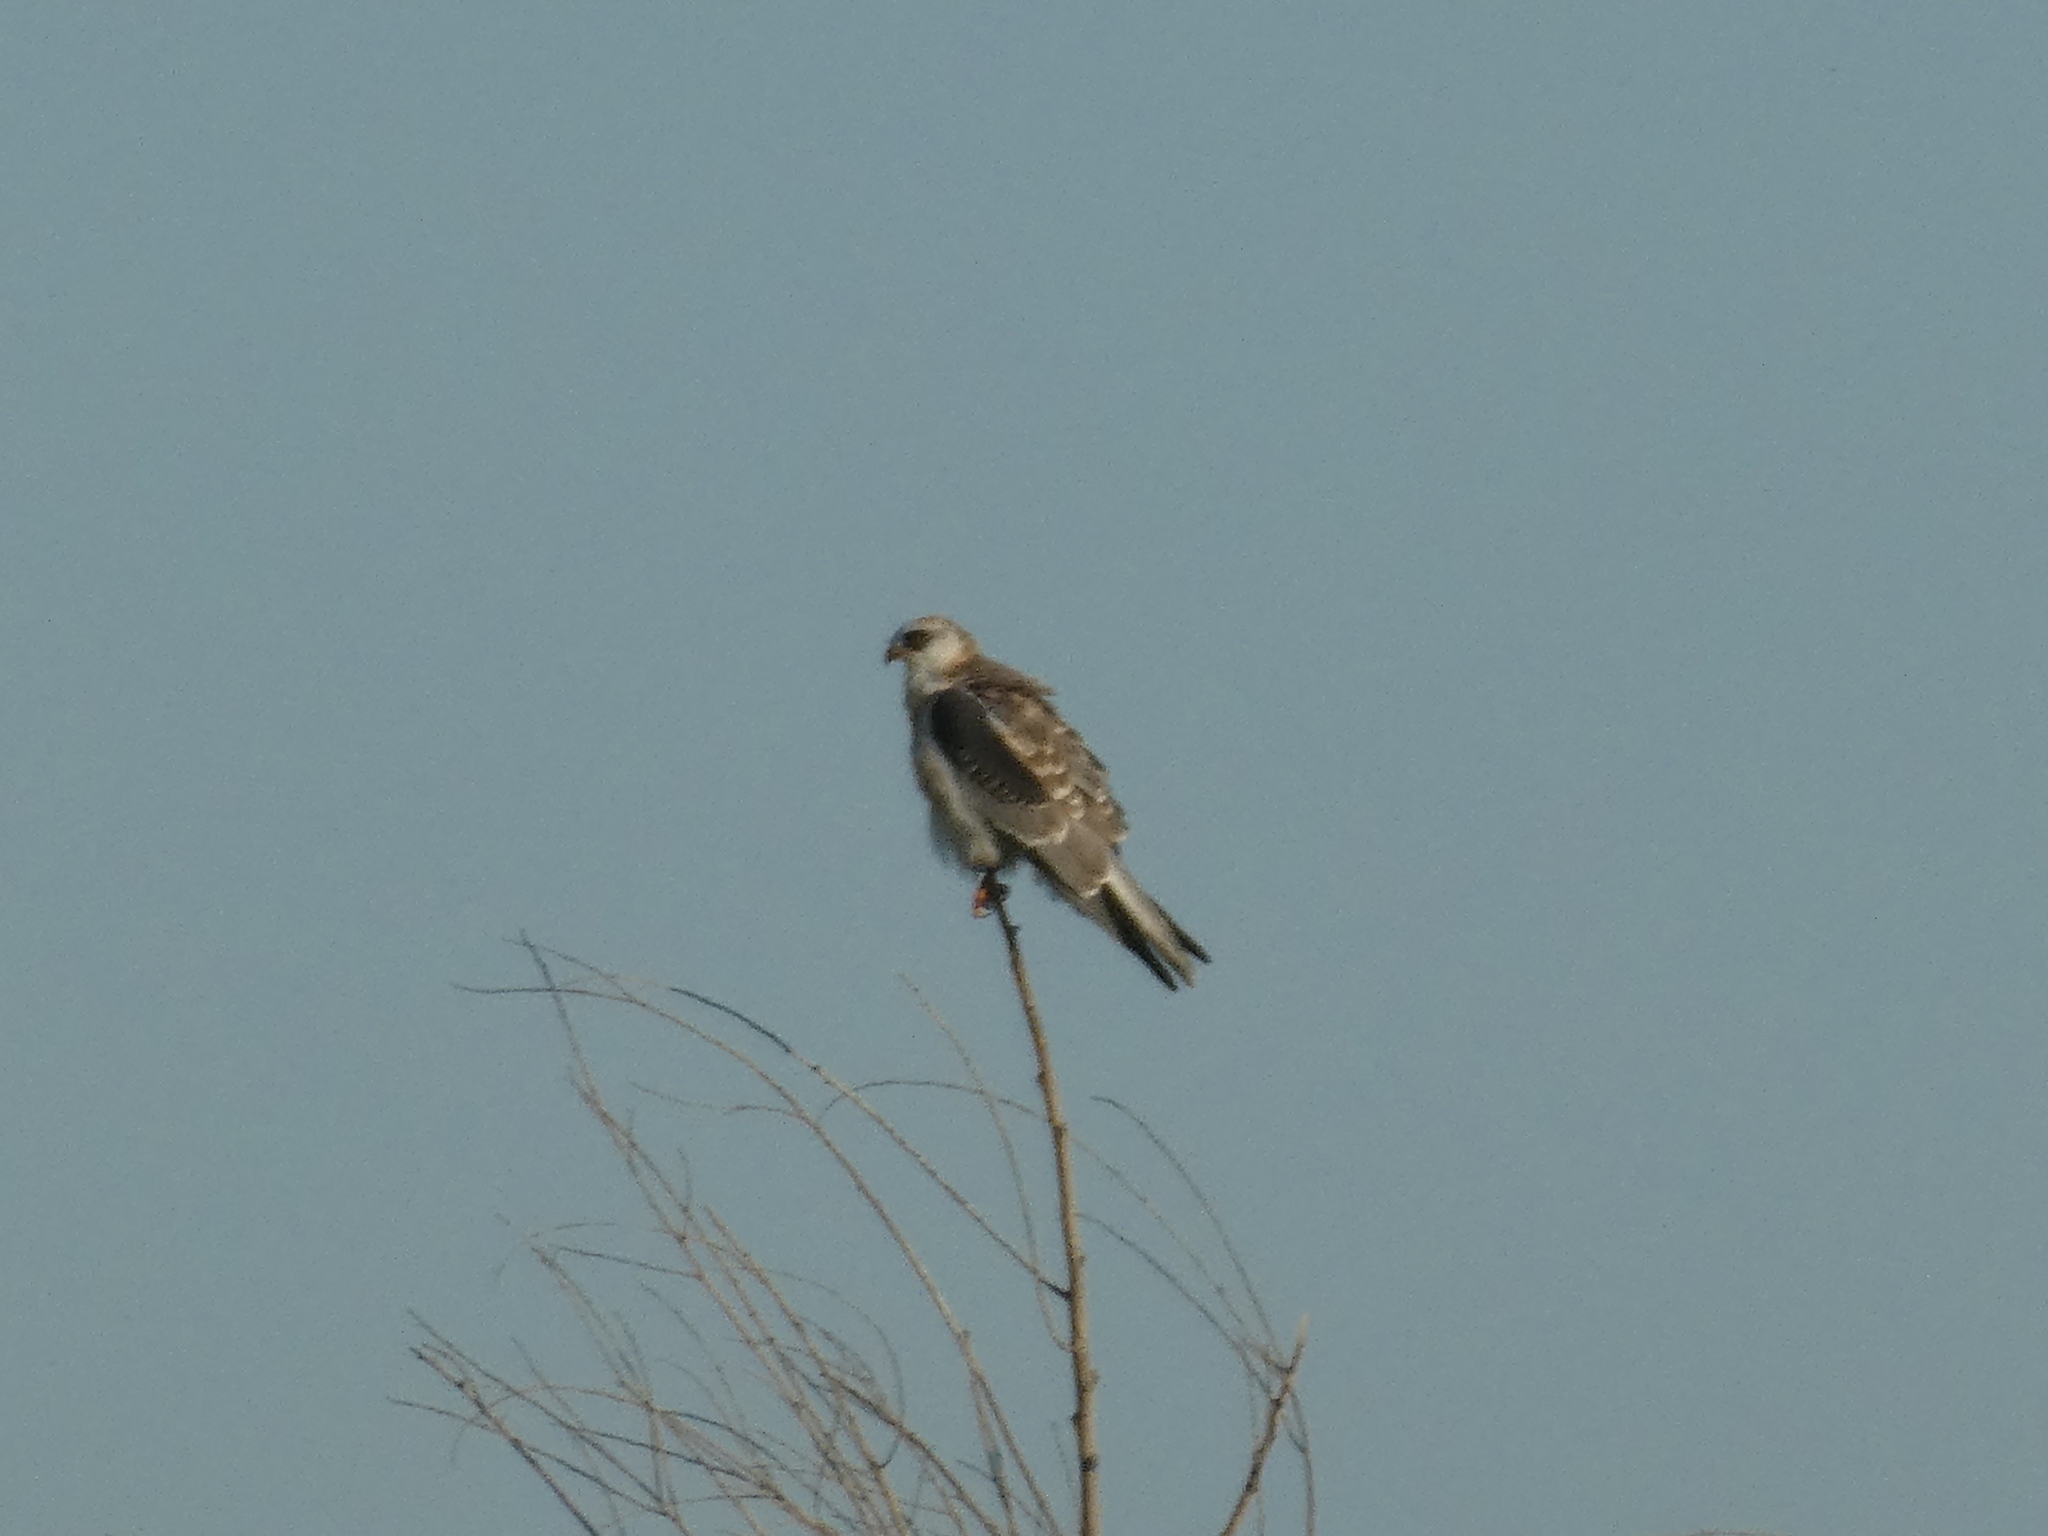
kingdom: Animalia
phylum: Chordata
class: Aves
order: Accipitriformes
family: Accipitridae
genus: Elanus
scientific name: Elanus leucurus
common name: White-tailed kite
